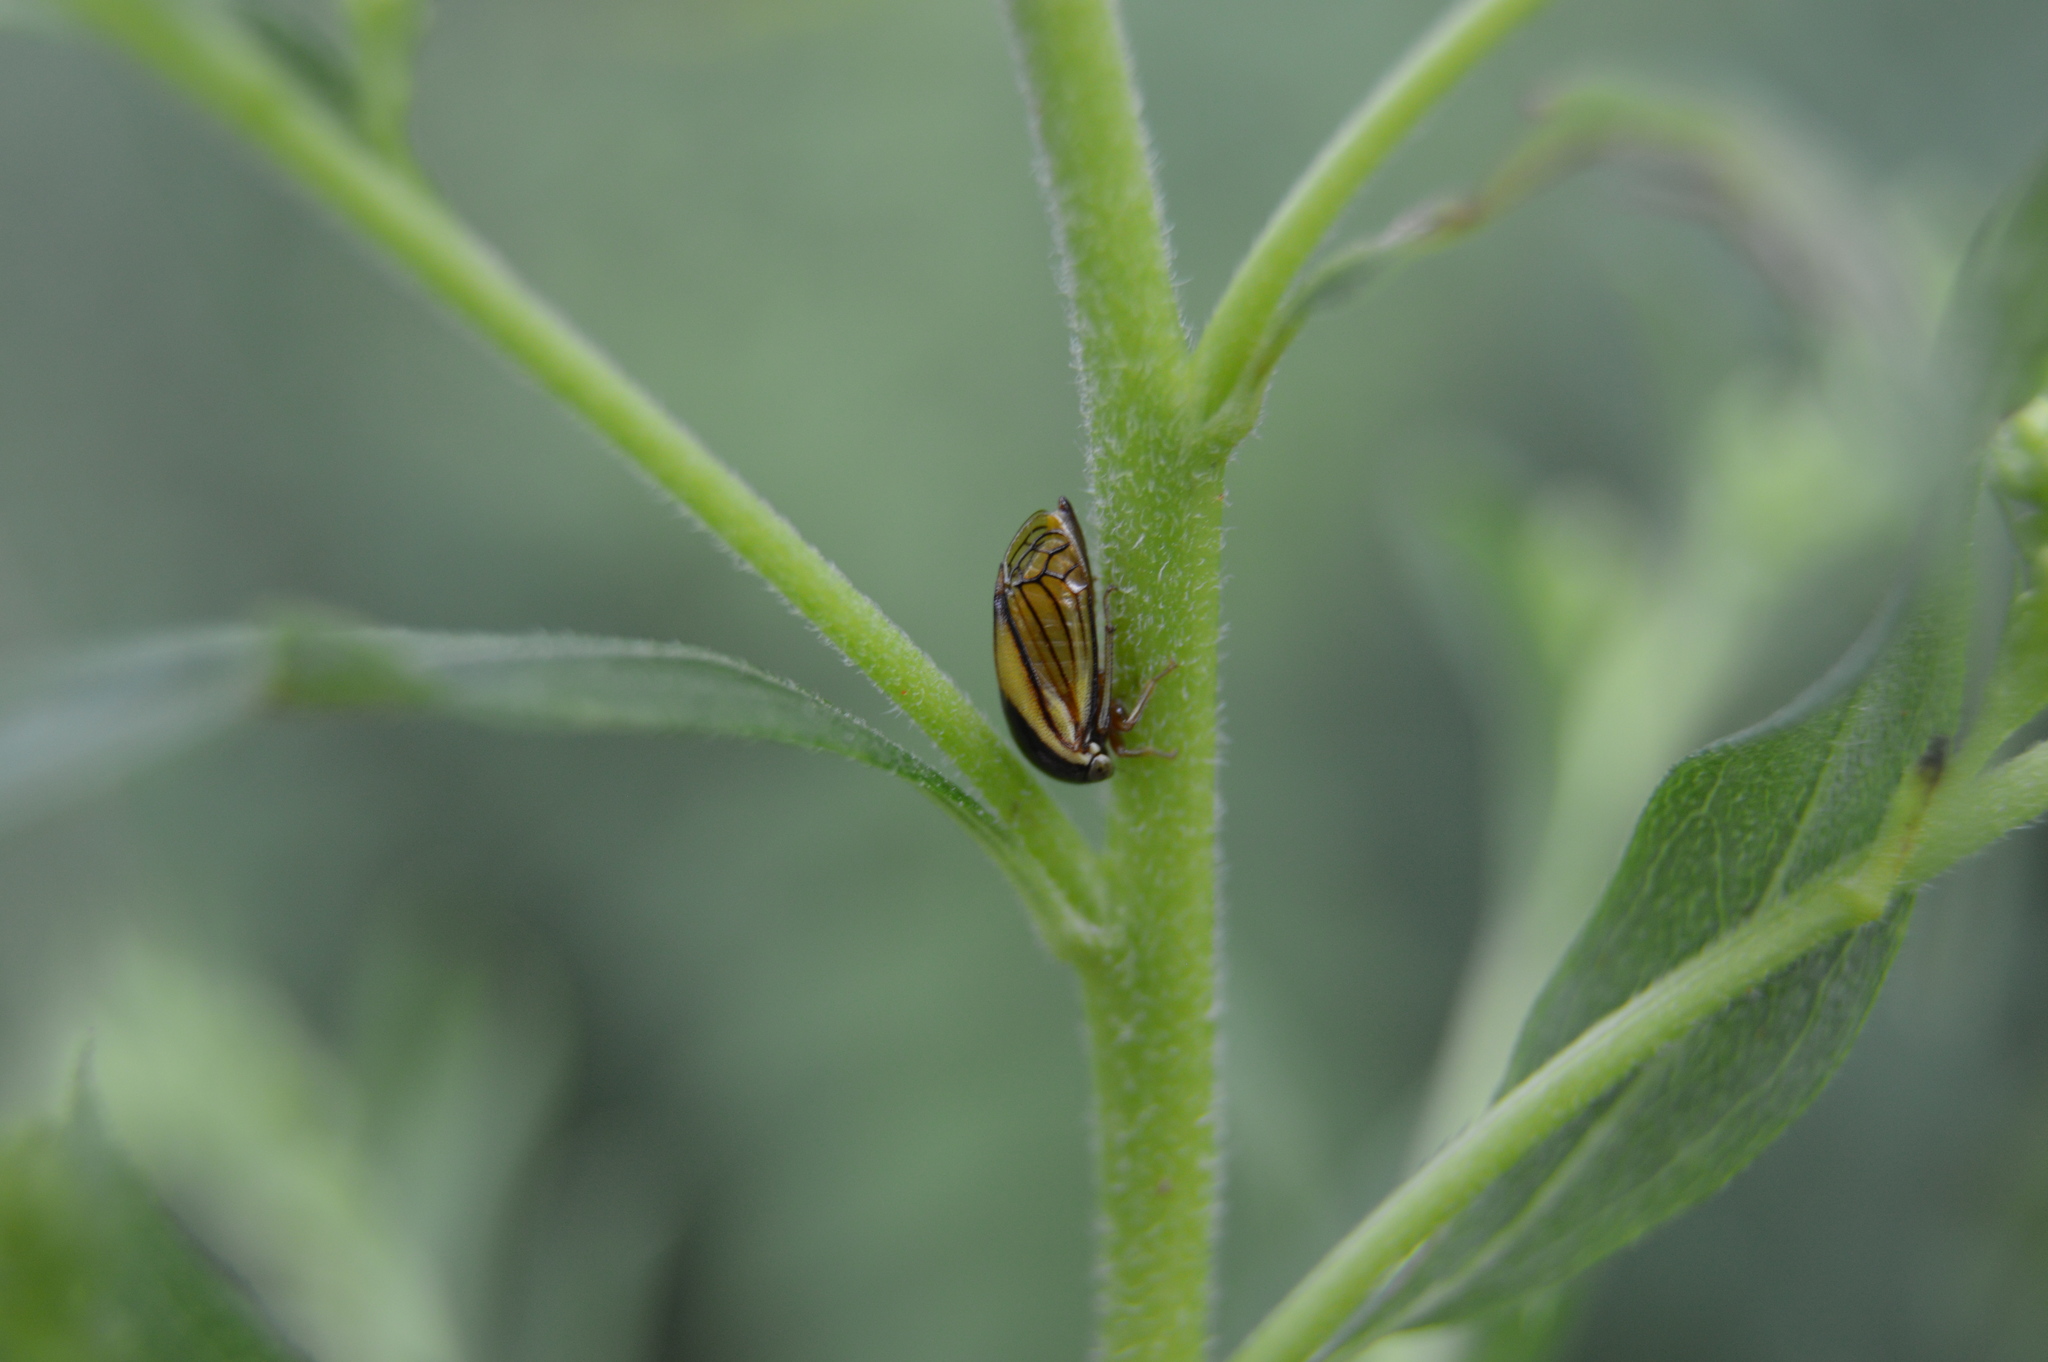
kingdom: Animalia
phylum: Arthropoda
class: Insecta
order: Hemiptera
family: Membracidae
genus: Acutalis
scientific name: Acutalis tartarea
